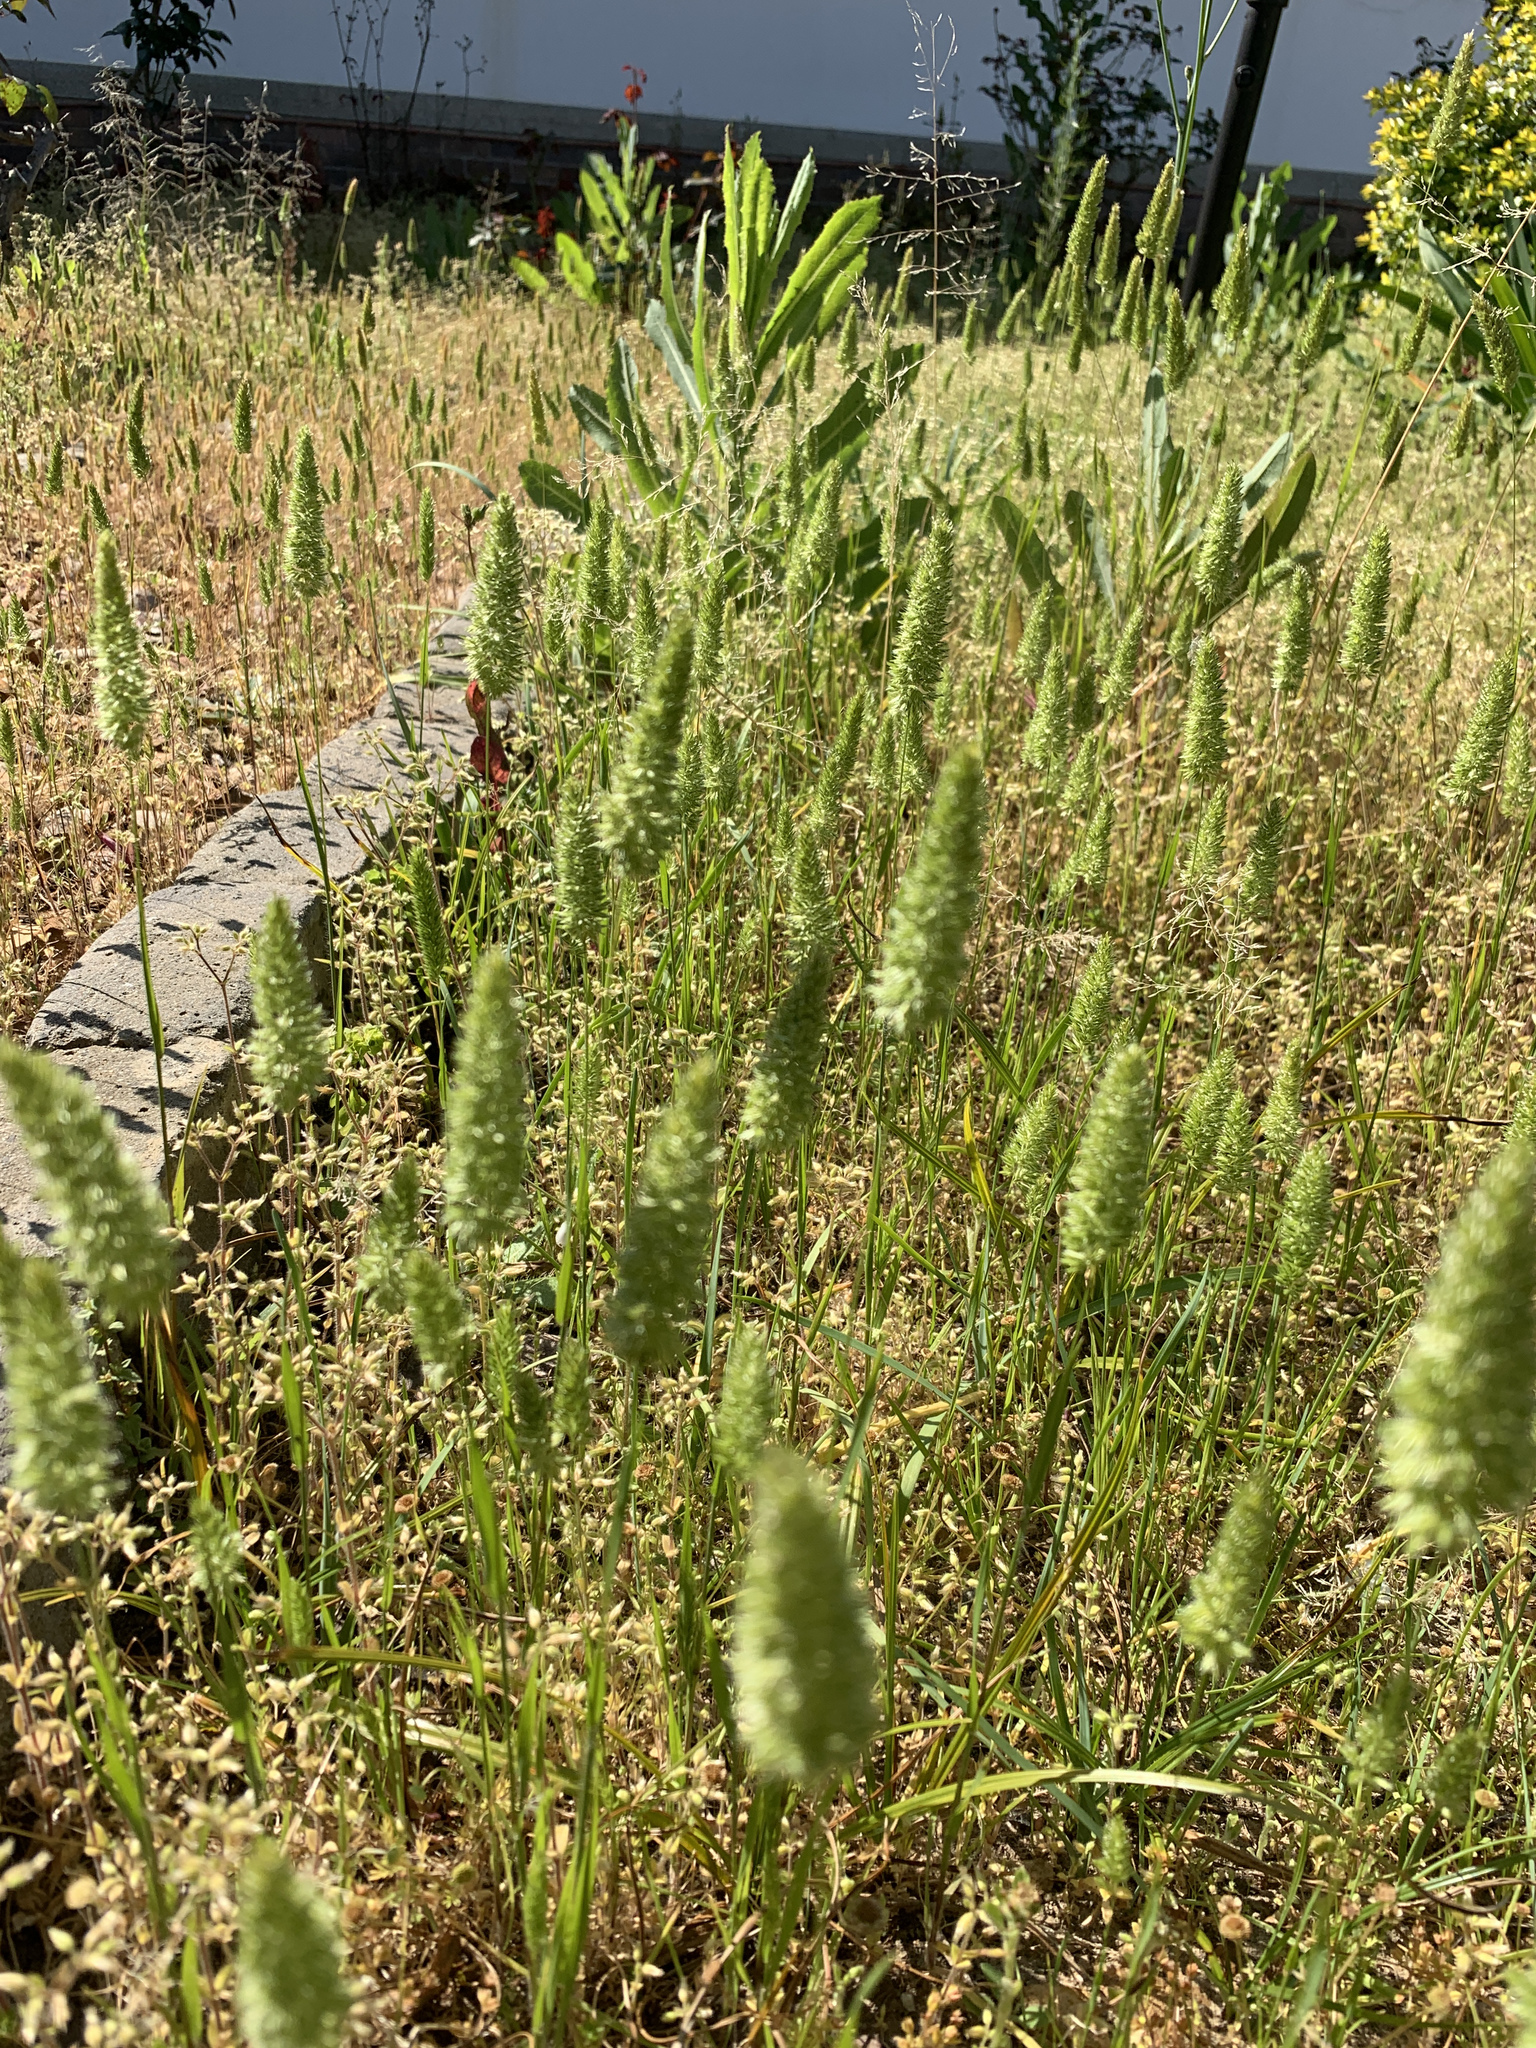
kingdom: Plantae
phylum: Tracheophyta
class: Liliopsida
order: Poales
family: Poaceae
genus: Rostraria
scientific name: Rostraria cristata
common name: Mediterranean hair-grass
